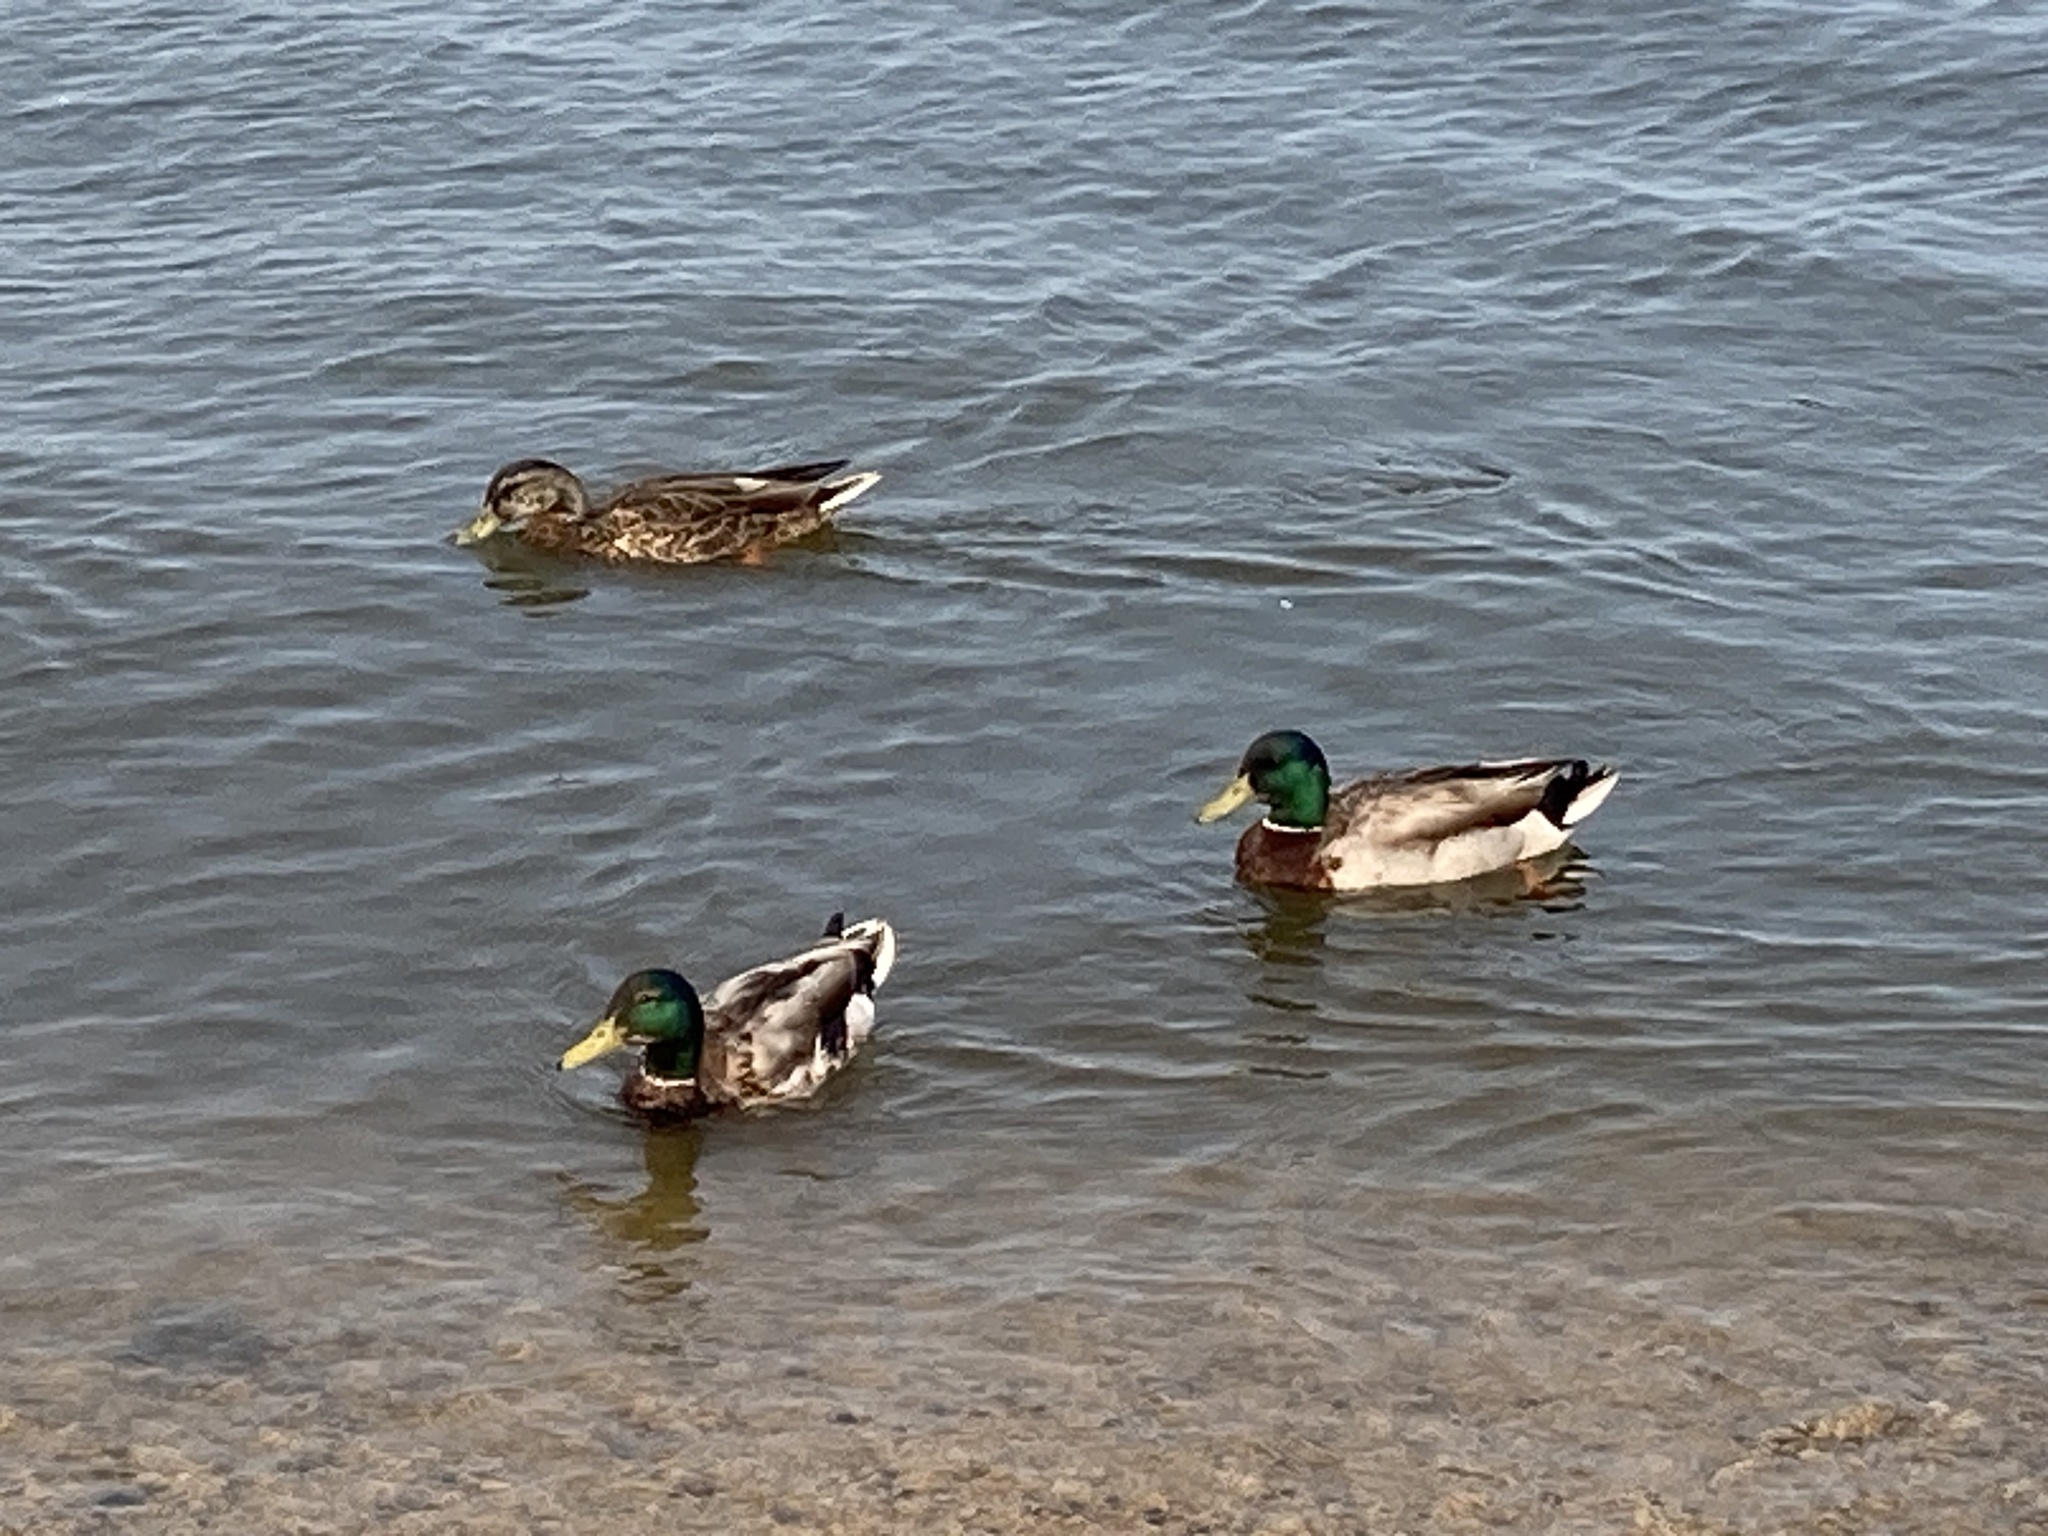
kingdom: Animalia
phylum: Chordata
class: Aves
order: Anseriformes
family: Anatidae
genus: Anas
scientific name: Anas platyrhynchos
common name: Mallard
